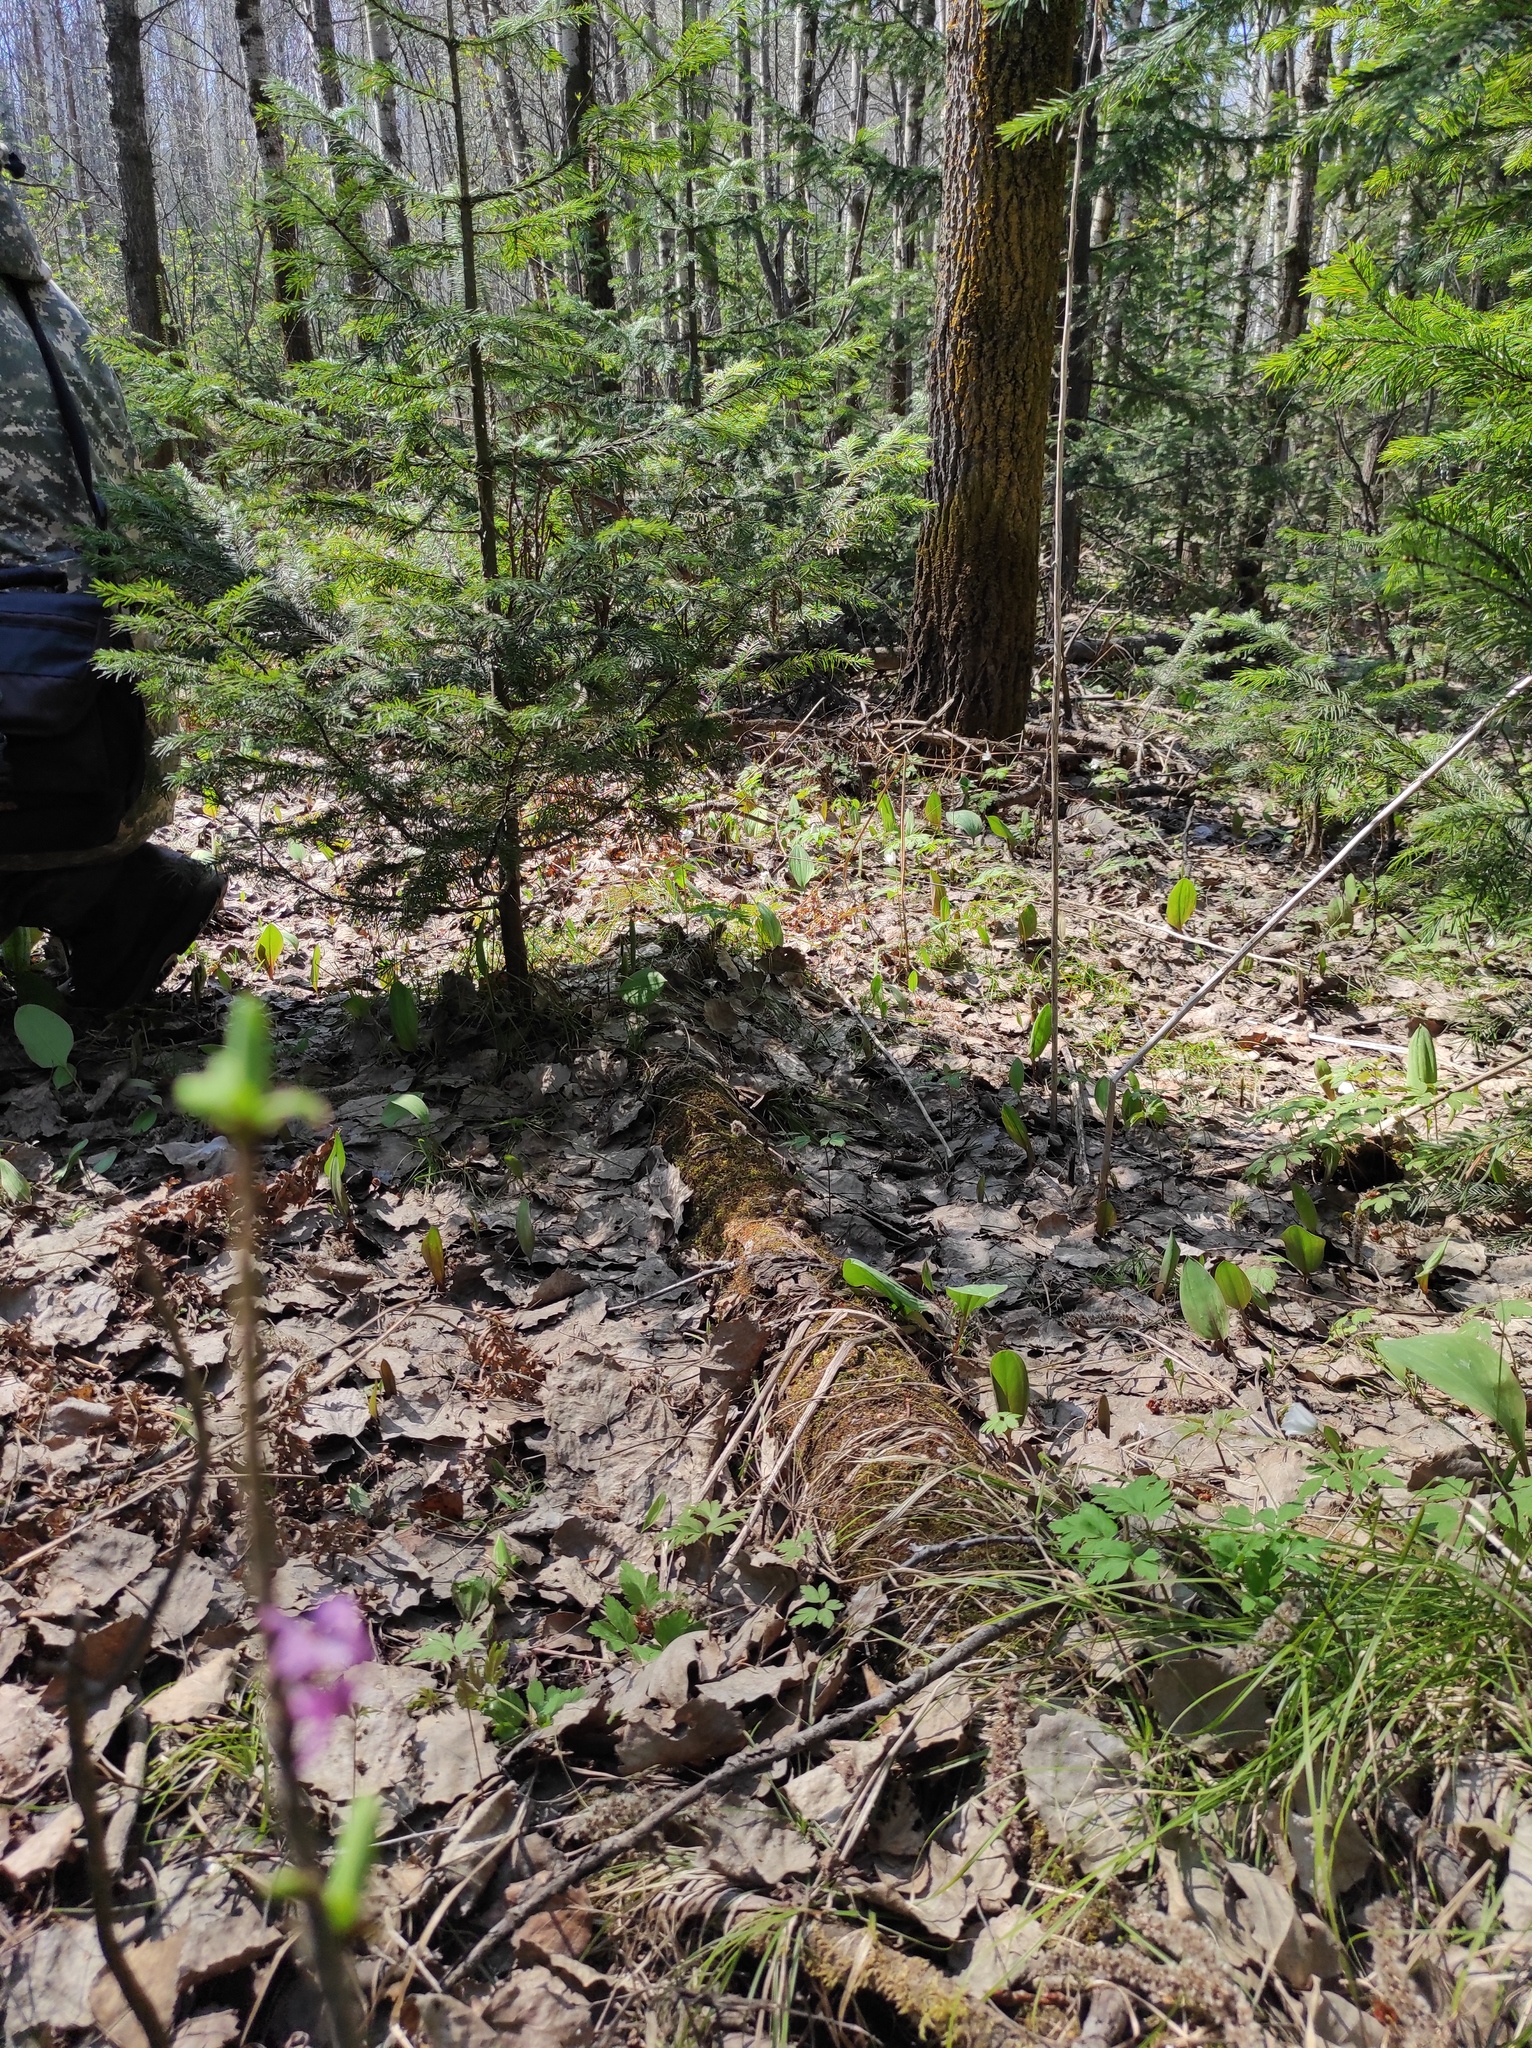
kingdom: Plantae
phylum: Tracheophyta
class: Pinopsida
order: Pinales
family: Pinaceae
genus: Abies
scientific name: Abies sibirica
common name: Siberian fir
